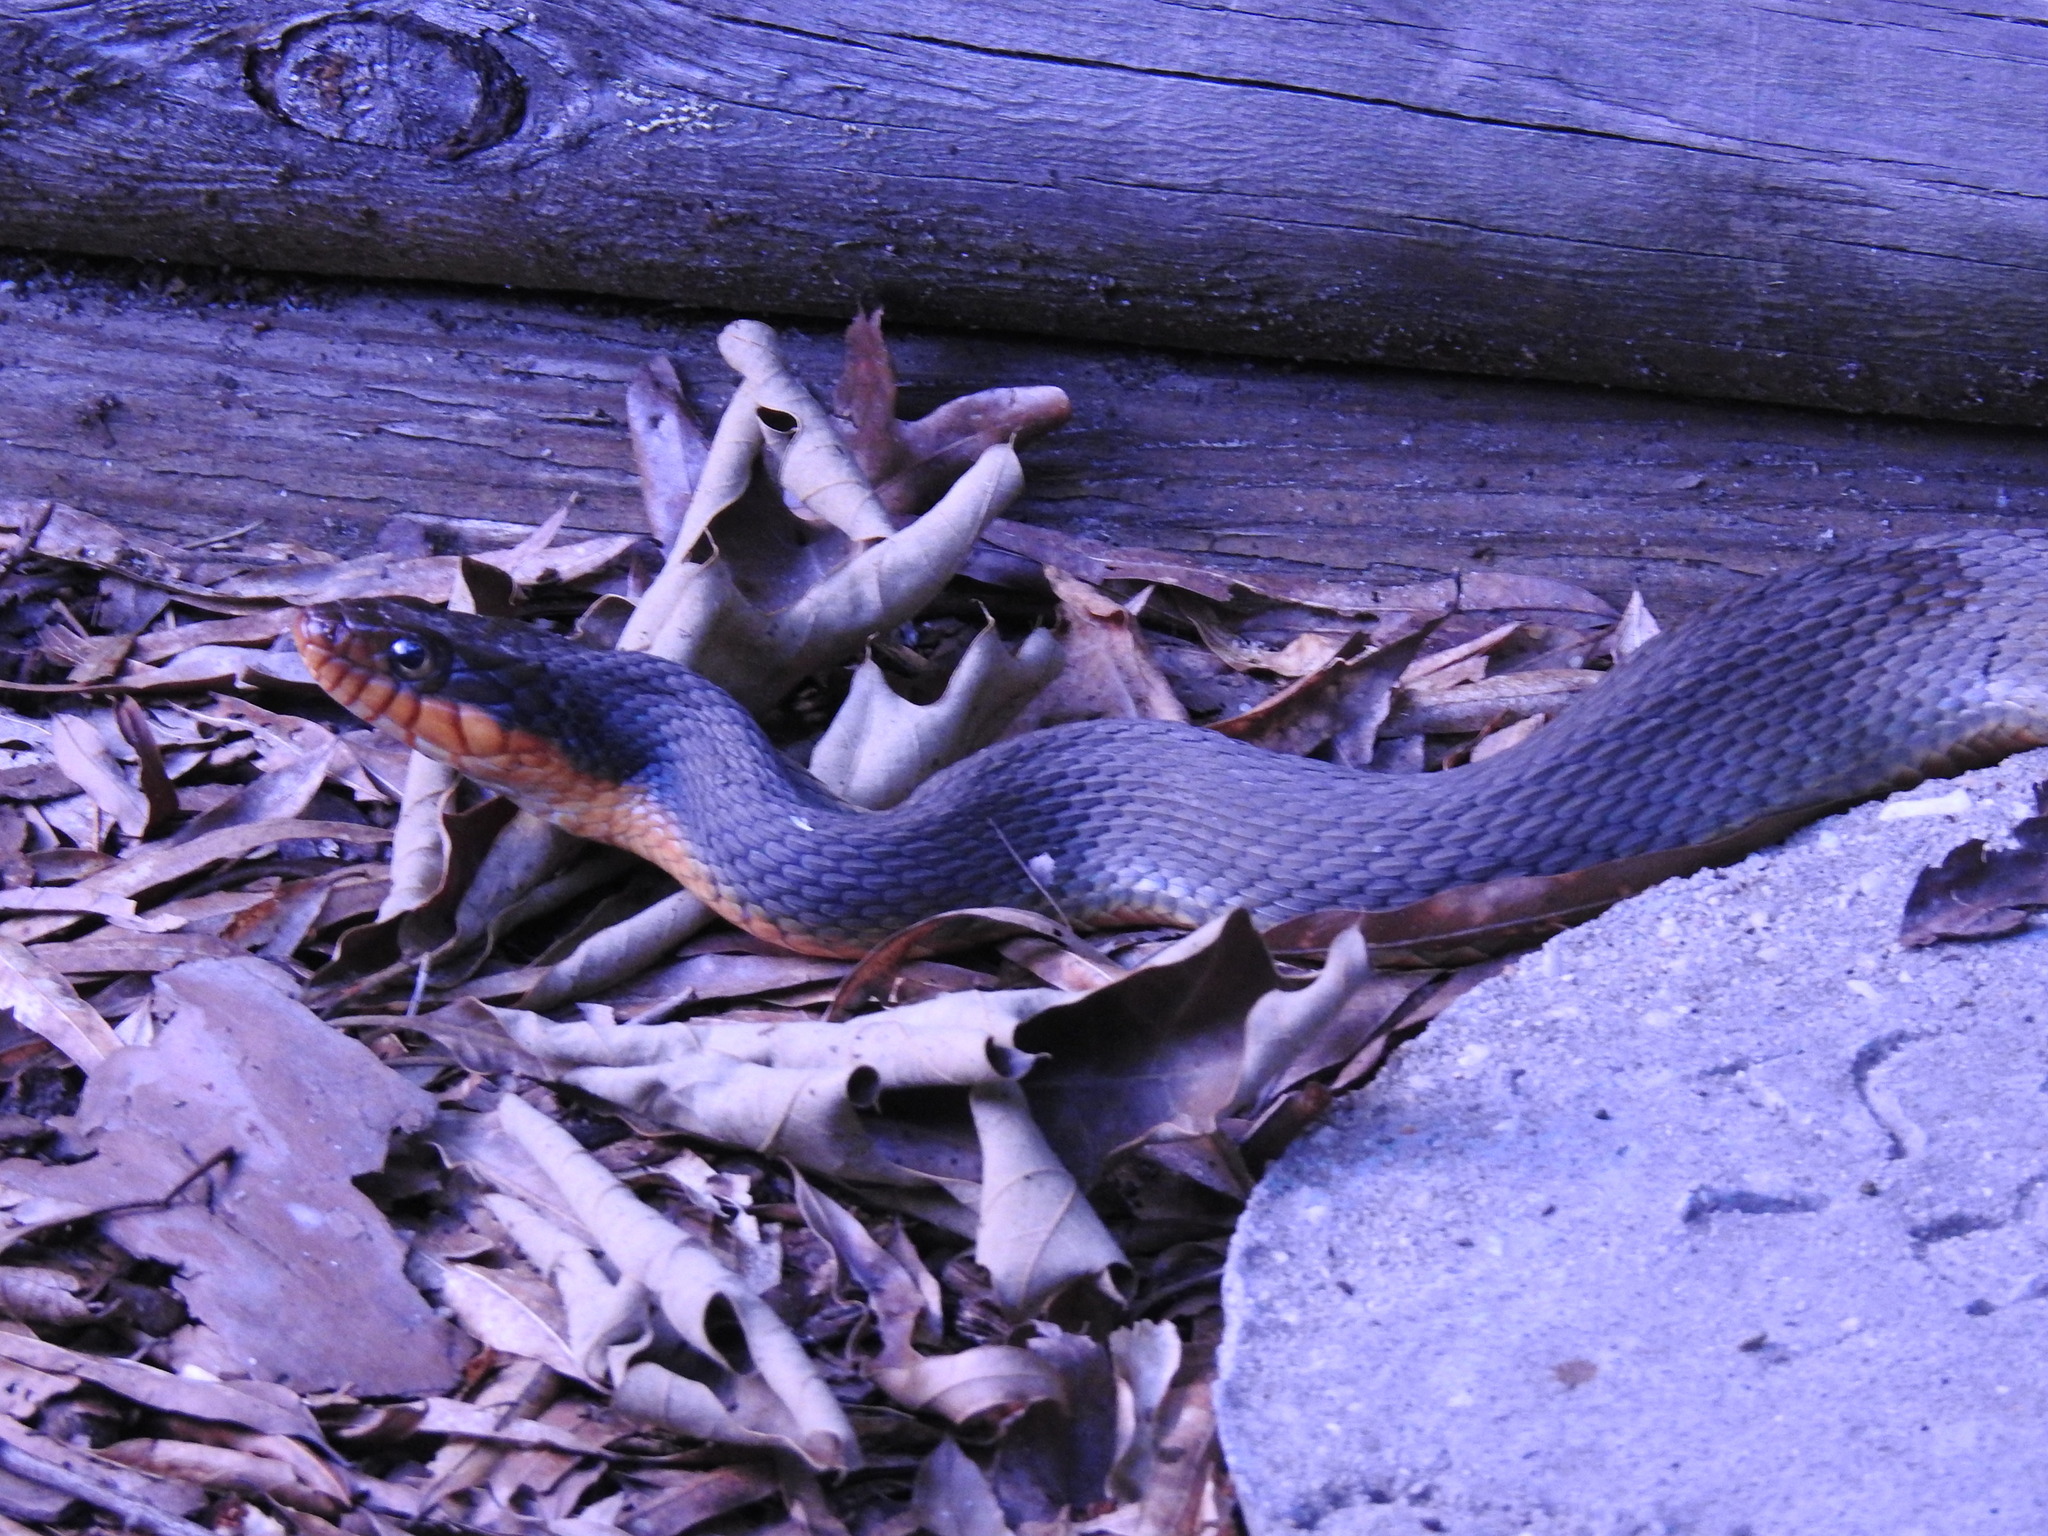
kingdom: Animalia
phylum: Chordata
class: Squamata
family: Colubridae
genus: Nerodia
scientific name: Nerodia erythrogaster
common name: Plainbelly water snake
